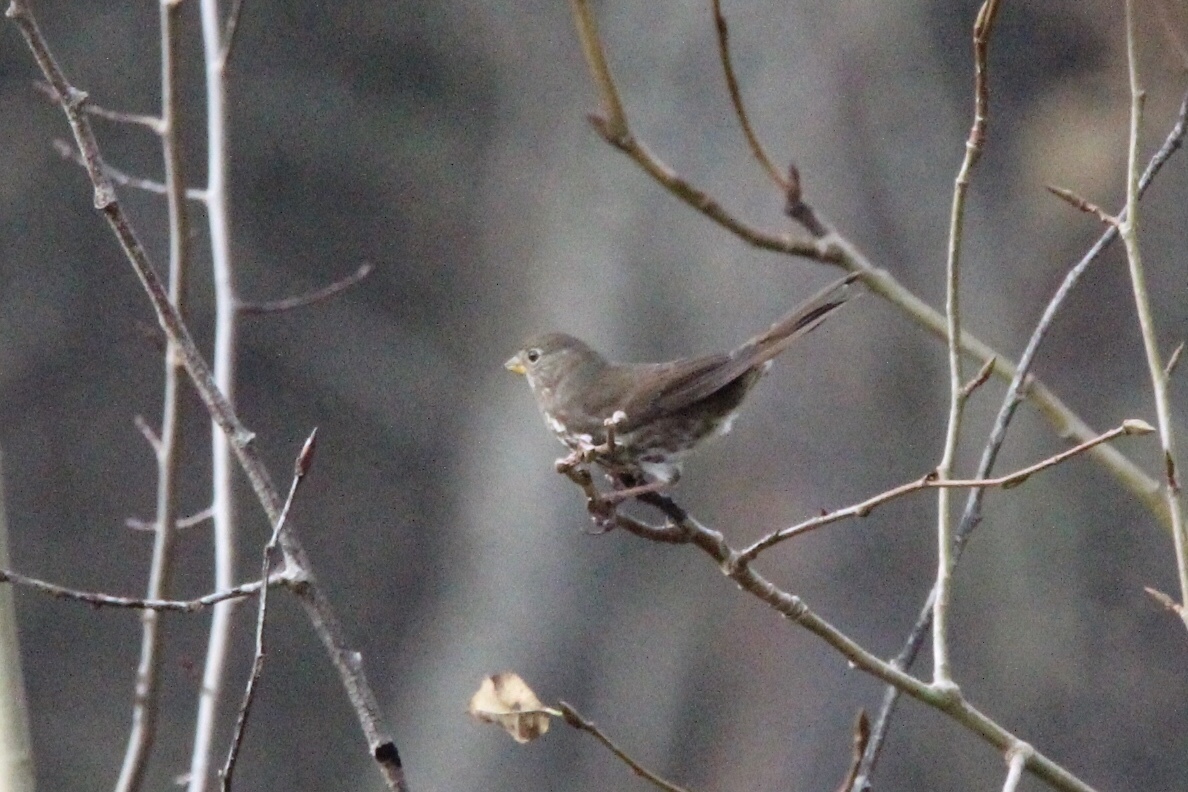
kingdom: Animalia
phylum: Chordata
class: Aves
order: Passeriformes
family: Passerellidae
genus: Passerella
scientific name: Passerella iliaca
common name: Fox sparrow
